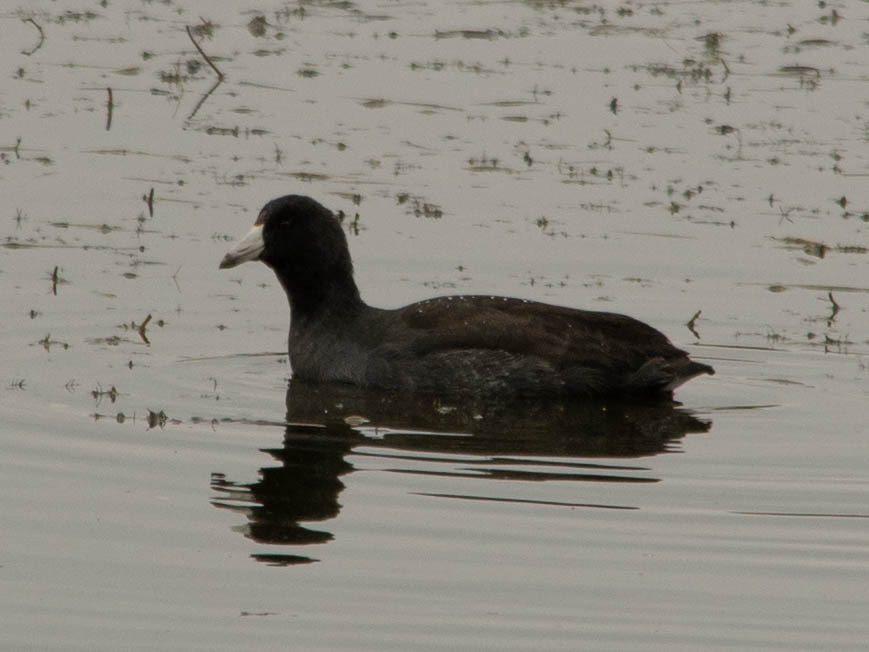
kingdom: Animalia
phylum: Chordata
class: Aves
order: Gruiformes
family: Rallidae
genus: Fulica
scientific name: Fulica americana
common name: American coot
